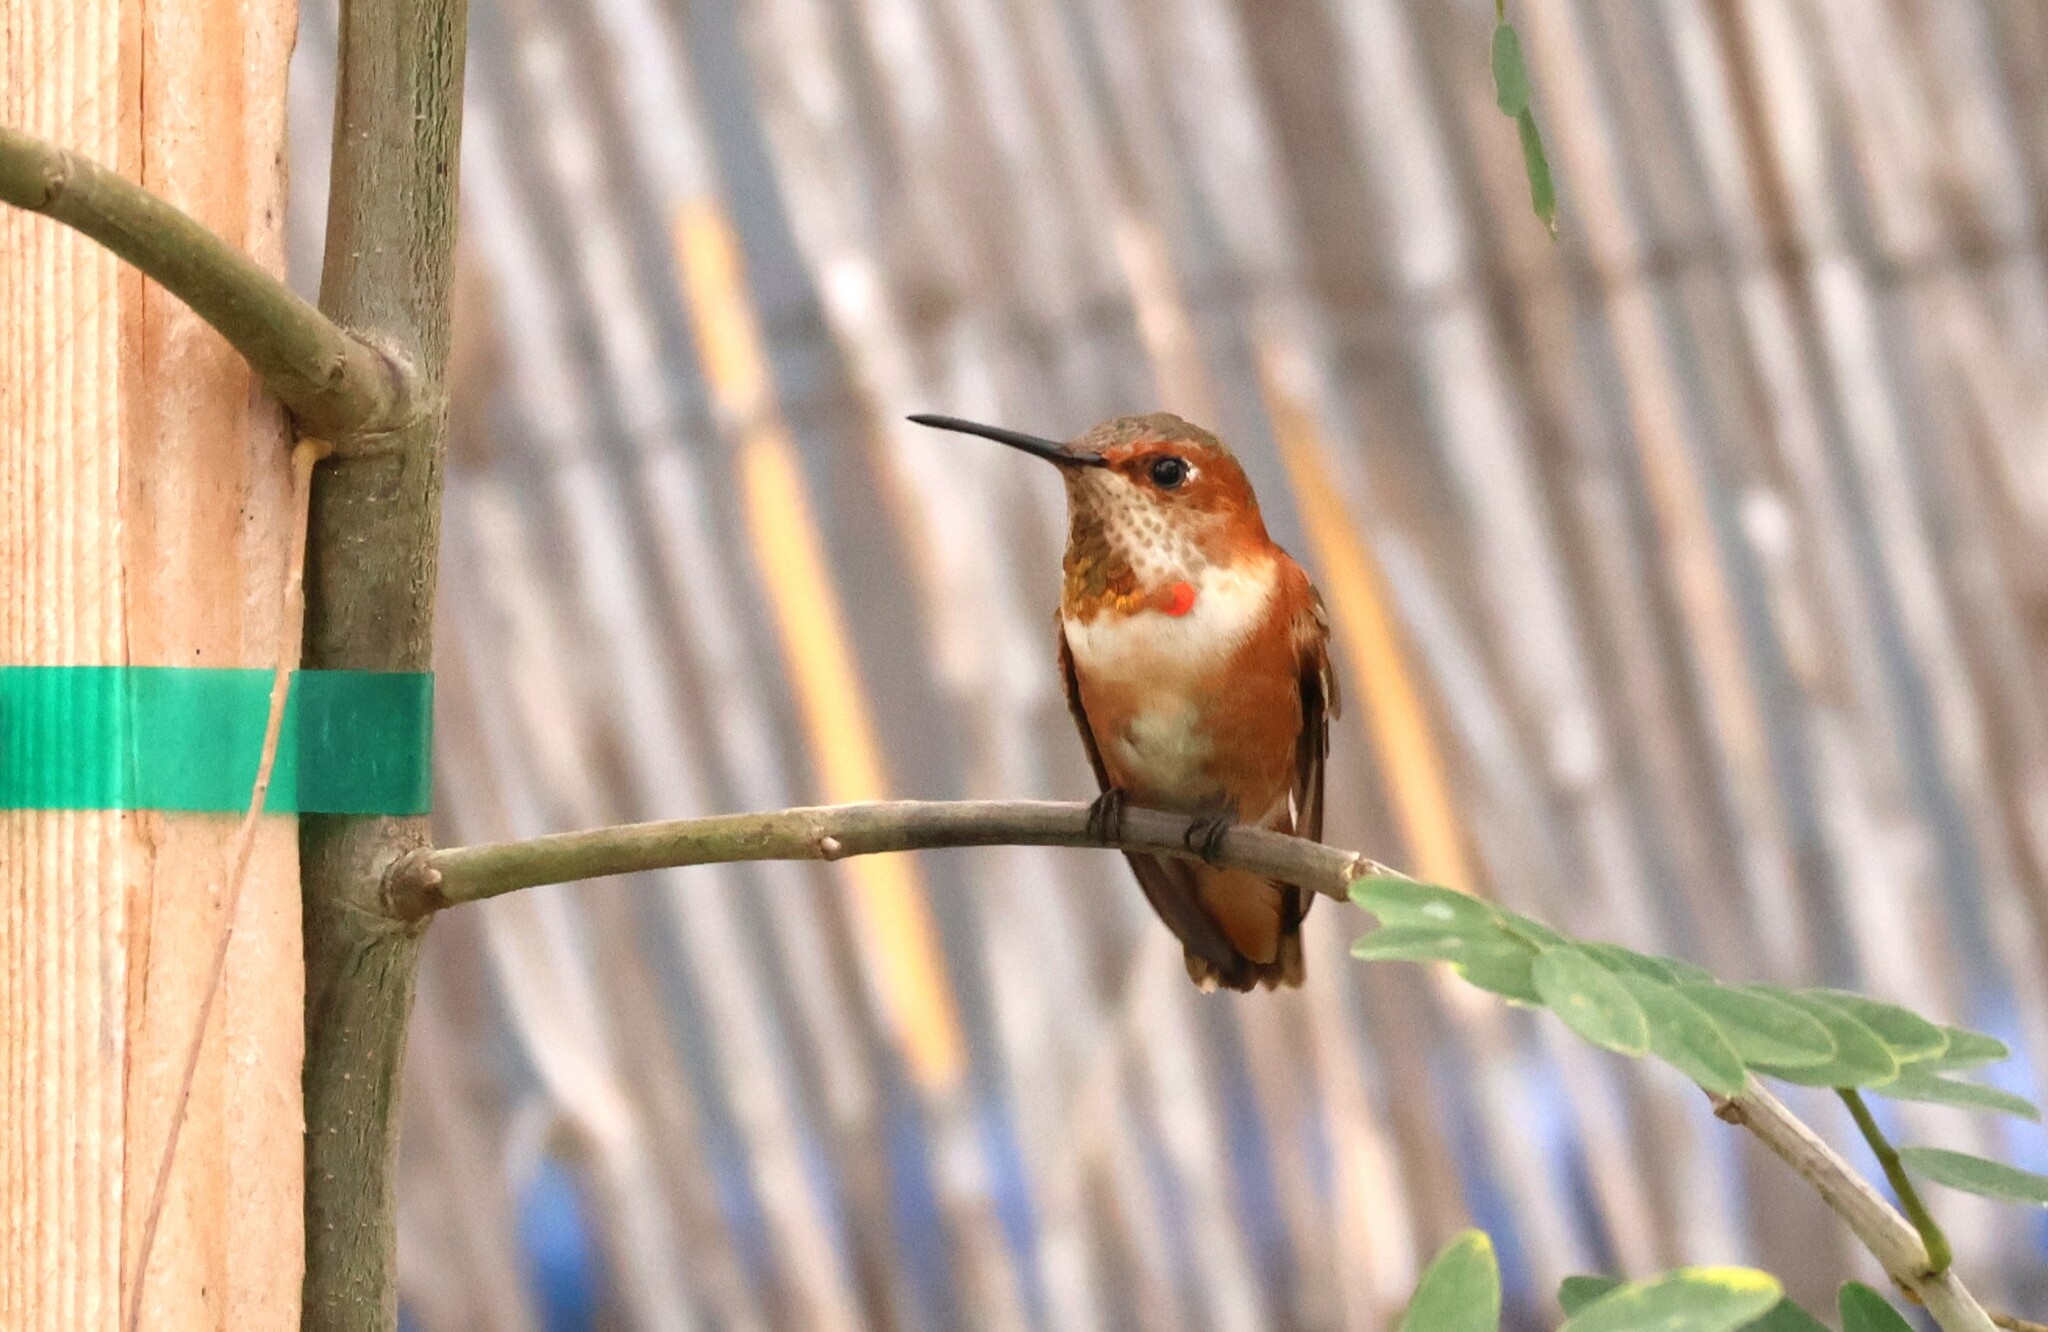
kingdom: Animalia
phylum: Chordata
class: Aves
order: Apodiformes
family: Trochilidae
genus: Selasphorus
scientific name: Selasphorus sasin
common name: Allen's hummingbird
